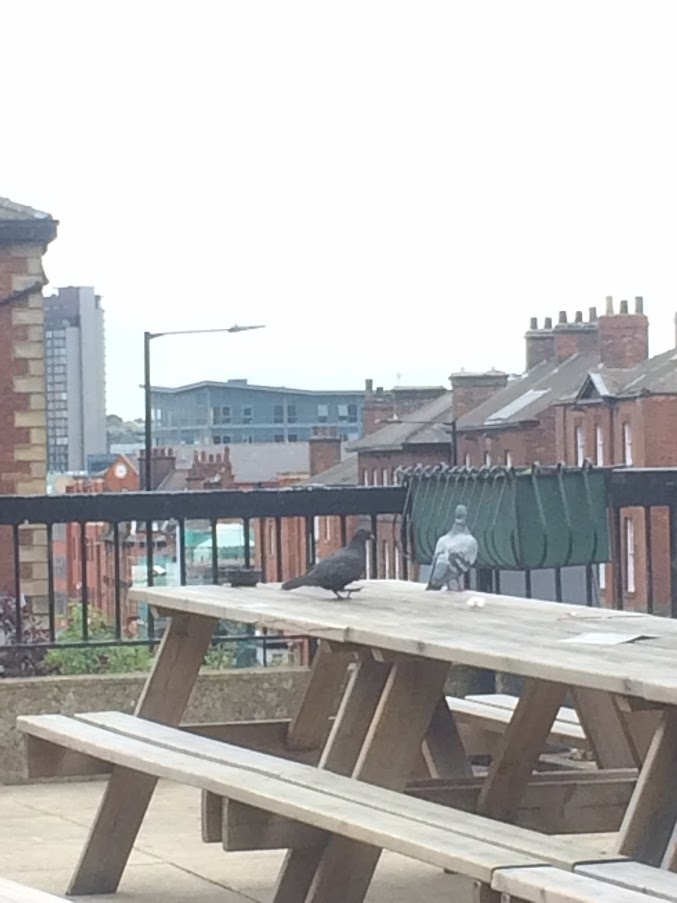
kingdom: Animalia
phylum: Chordata
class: Aves
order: Columbiformes
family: Columbidae
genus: Columba
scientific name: Columba livia
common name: Rock pigeon
